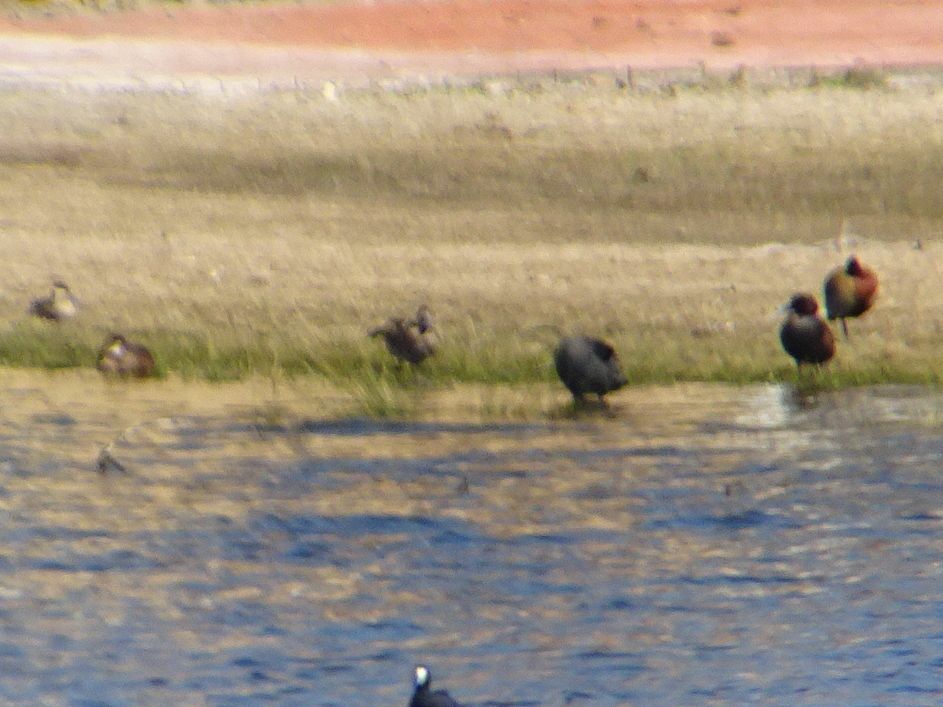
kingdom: Animalia
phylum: Chordata
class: Aves
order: Anseriformes
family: Anatidae
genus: Netta
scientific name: Netta erythrophthalma
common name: Southern pochard
